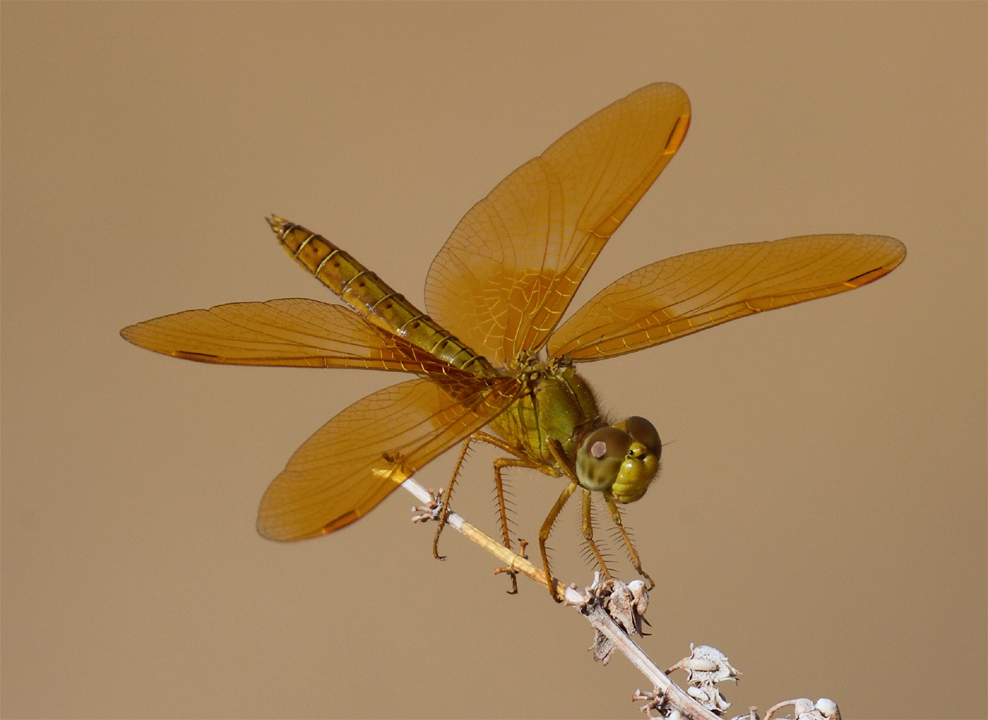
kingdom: Animalia
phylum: Arthropoda
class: Insecta
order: Odonata
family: Libellulidae
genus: Perithemis
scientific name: Perithemis intensa
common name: Mexican amberwing
